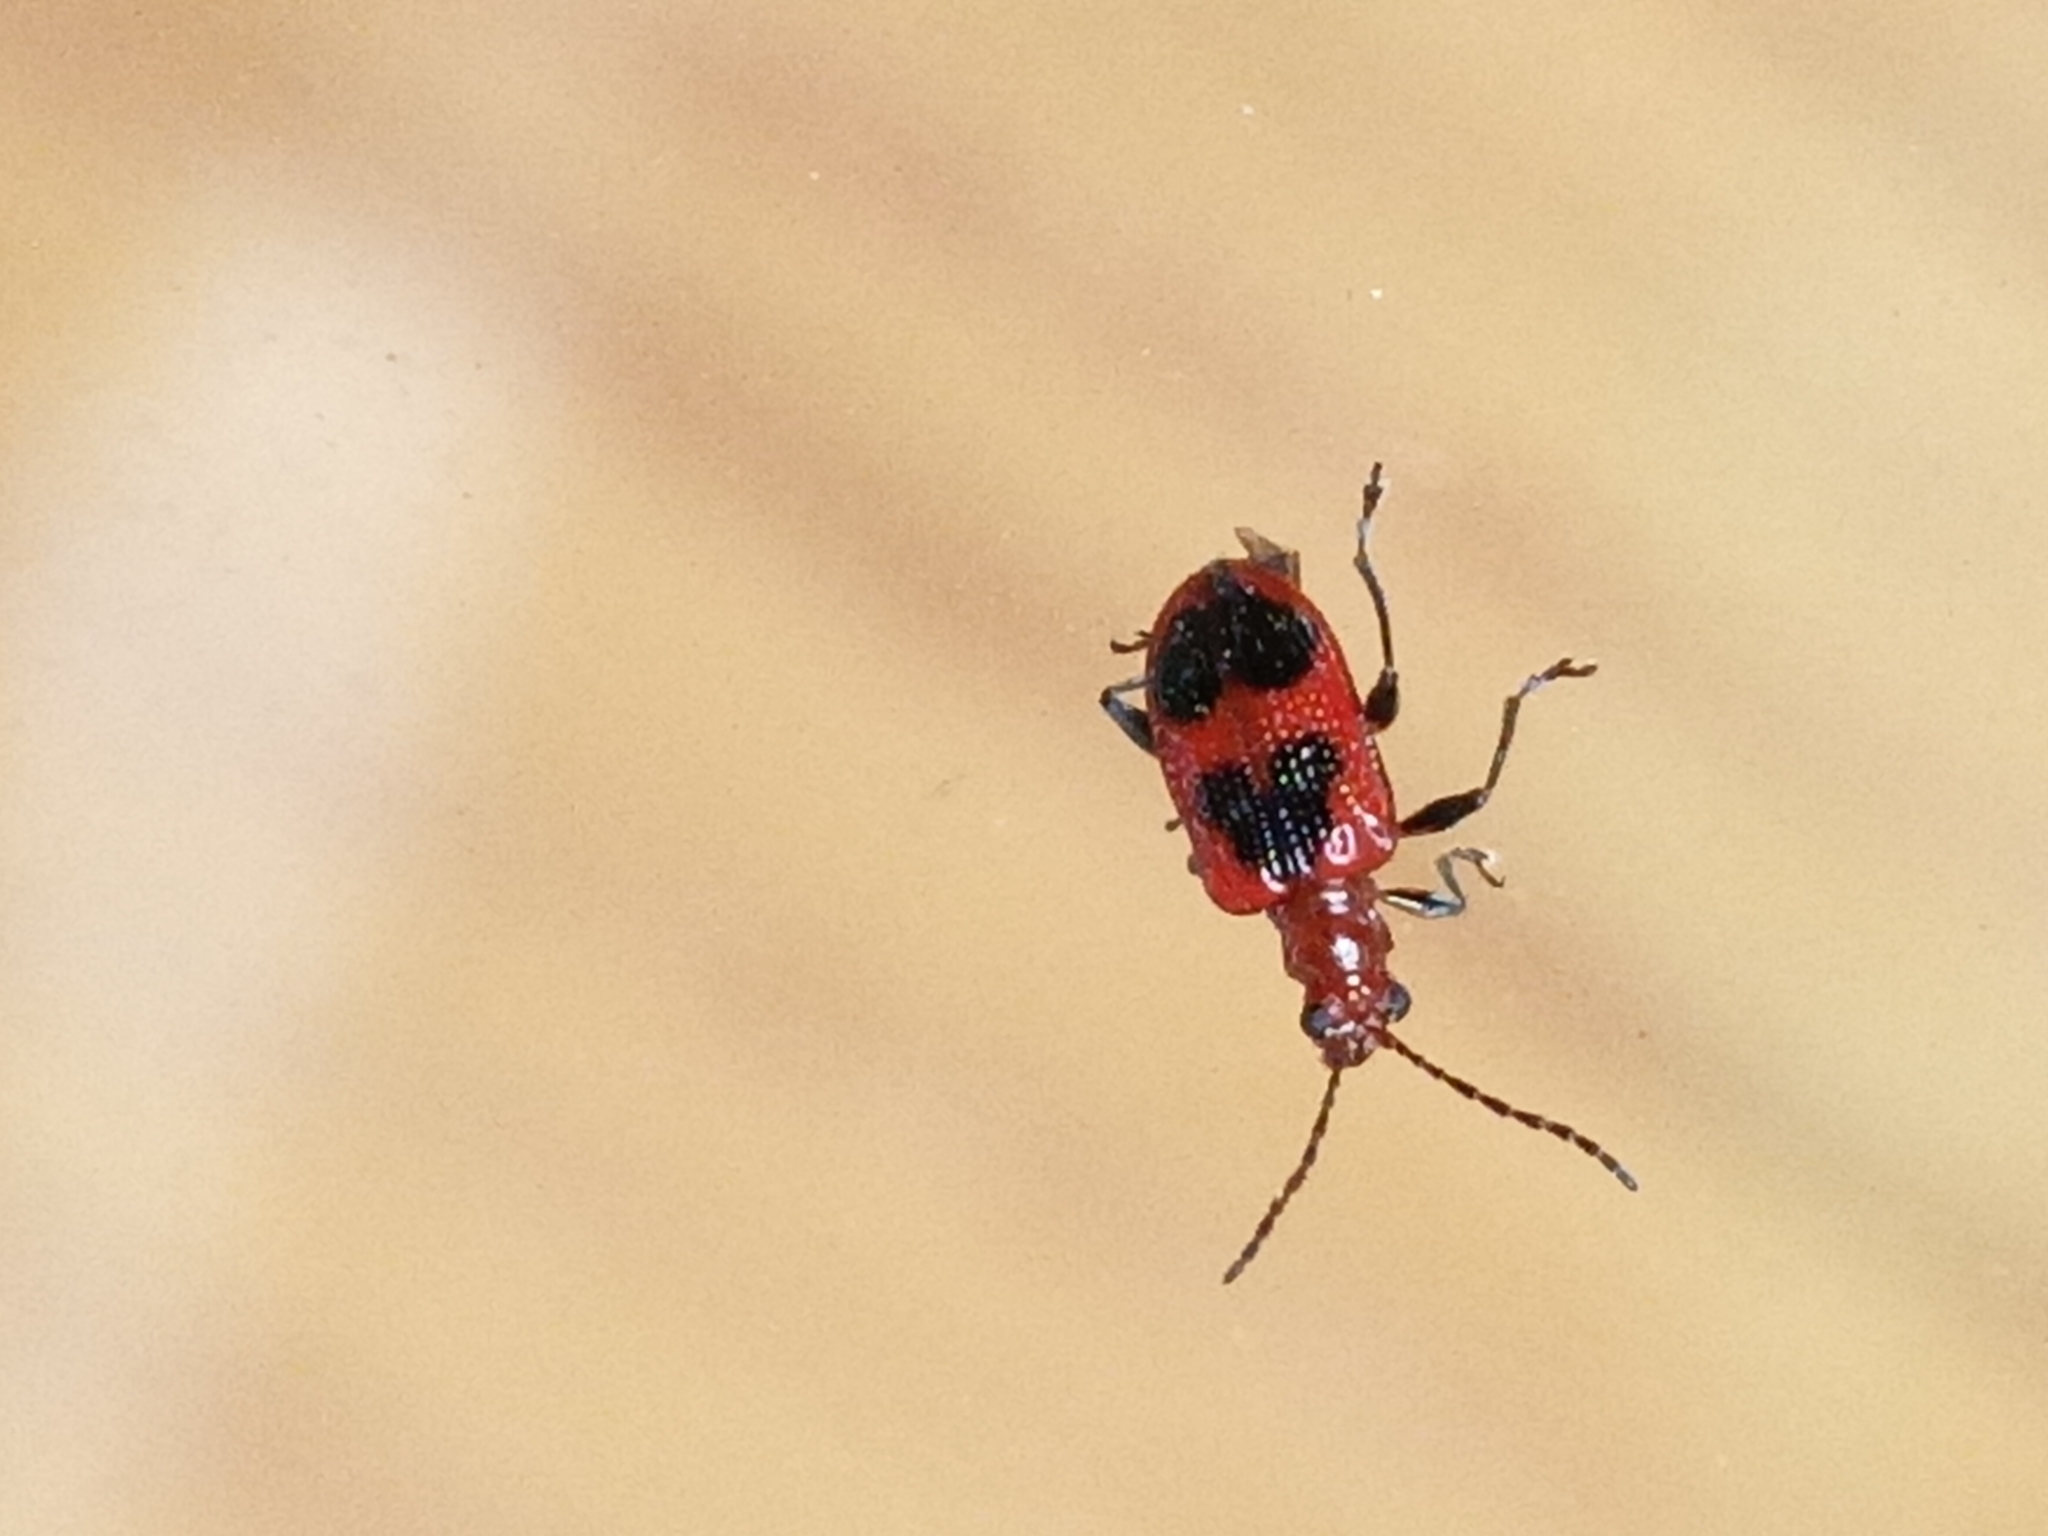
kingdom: Animalia
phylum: Arthropoda
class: Insecta
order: Coleoptera
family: Chrysomelidae
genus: Neolema
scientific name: Neolema cordata
